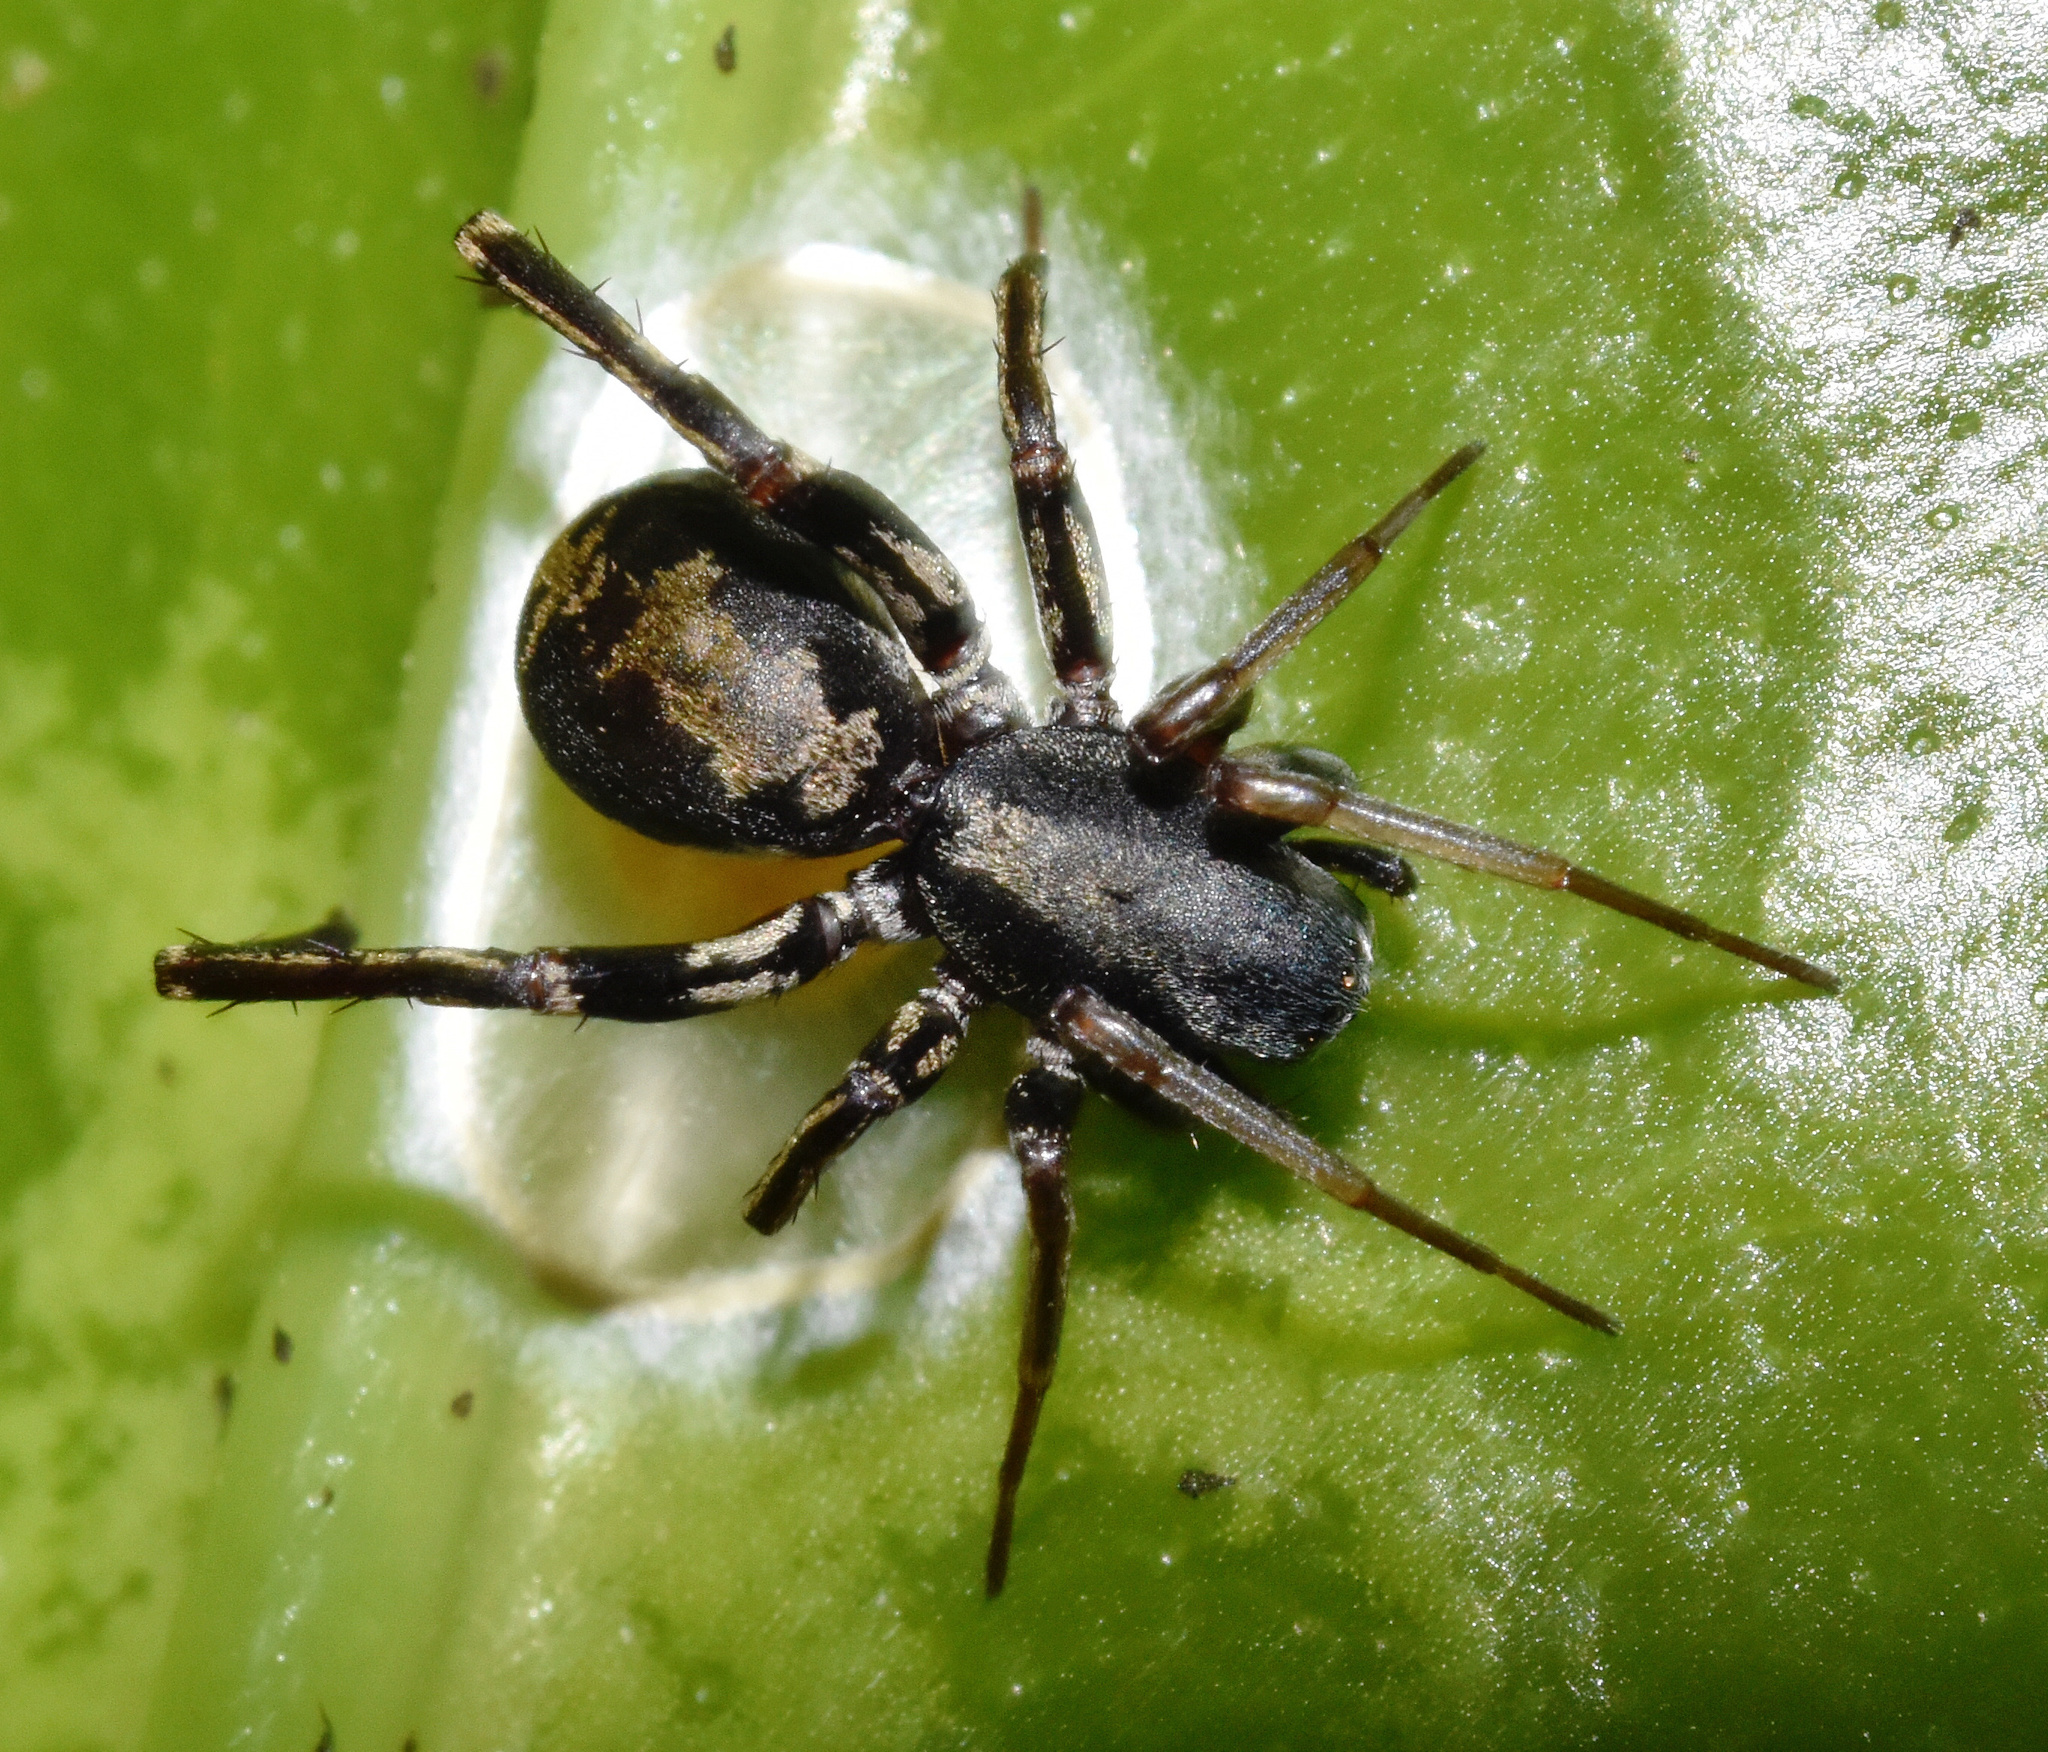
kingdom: Animalia
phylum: Arthropoda
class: Arachnida
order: Araneae
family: Corinnidae
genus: Merenius
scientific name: Merenius alberti
